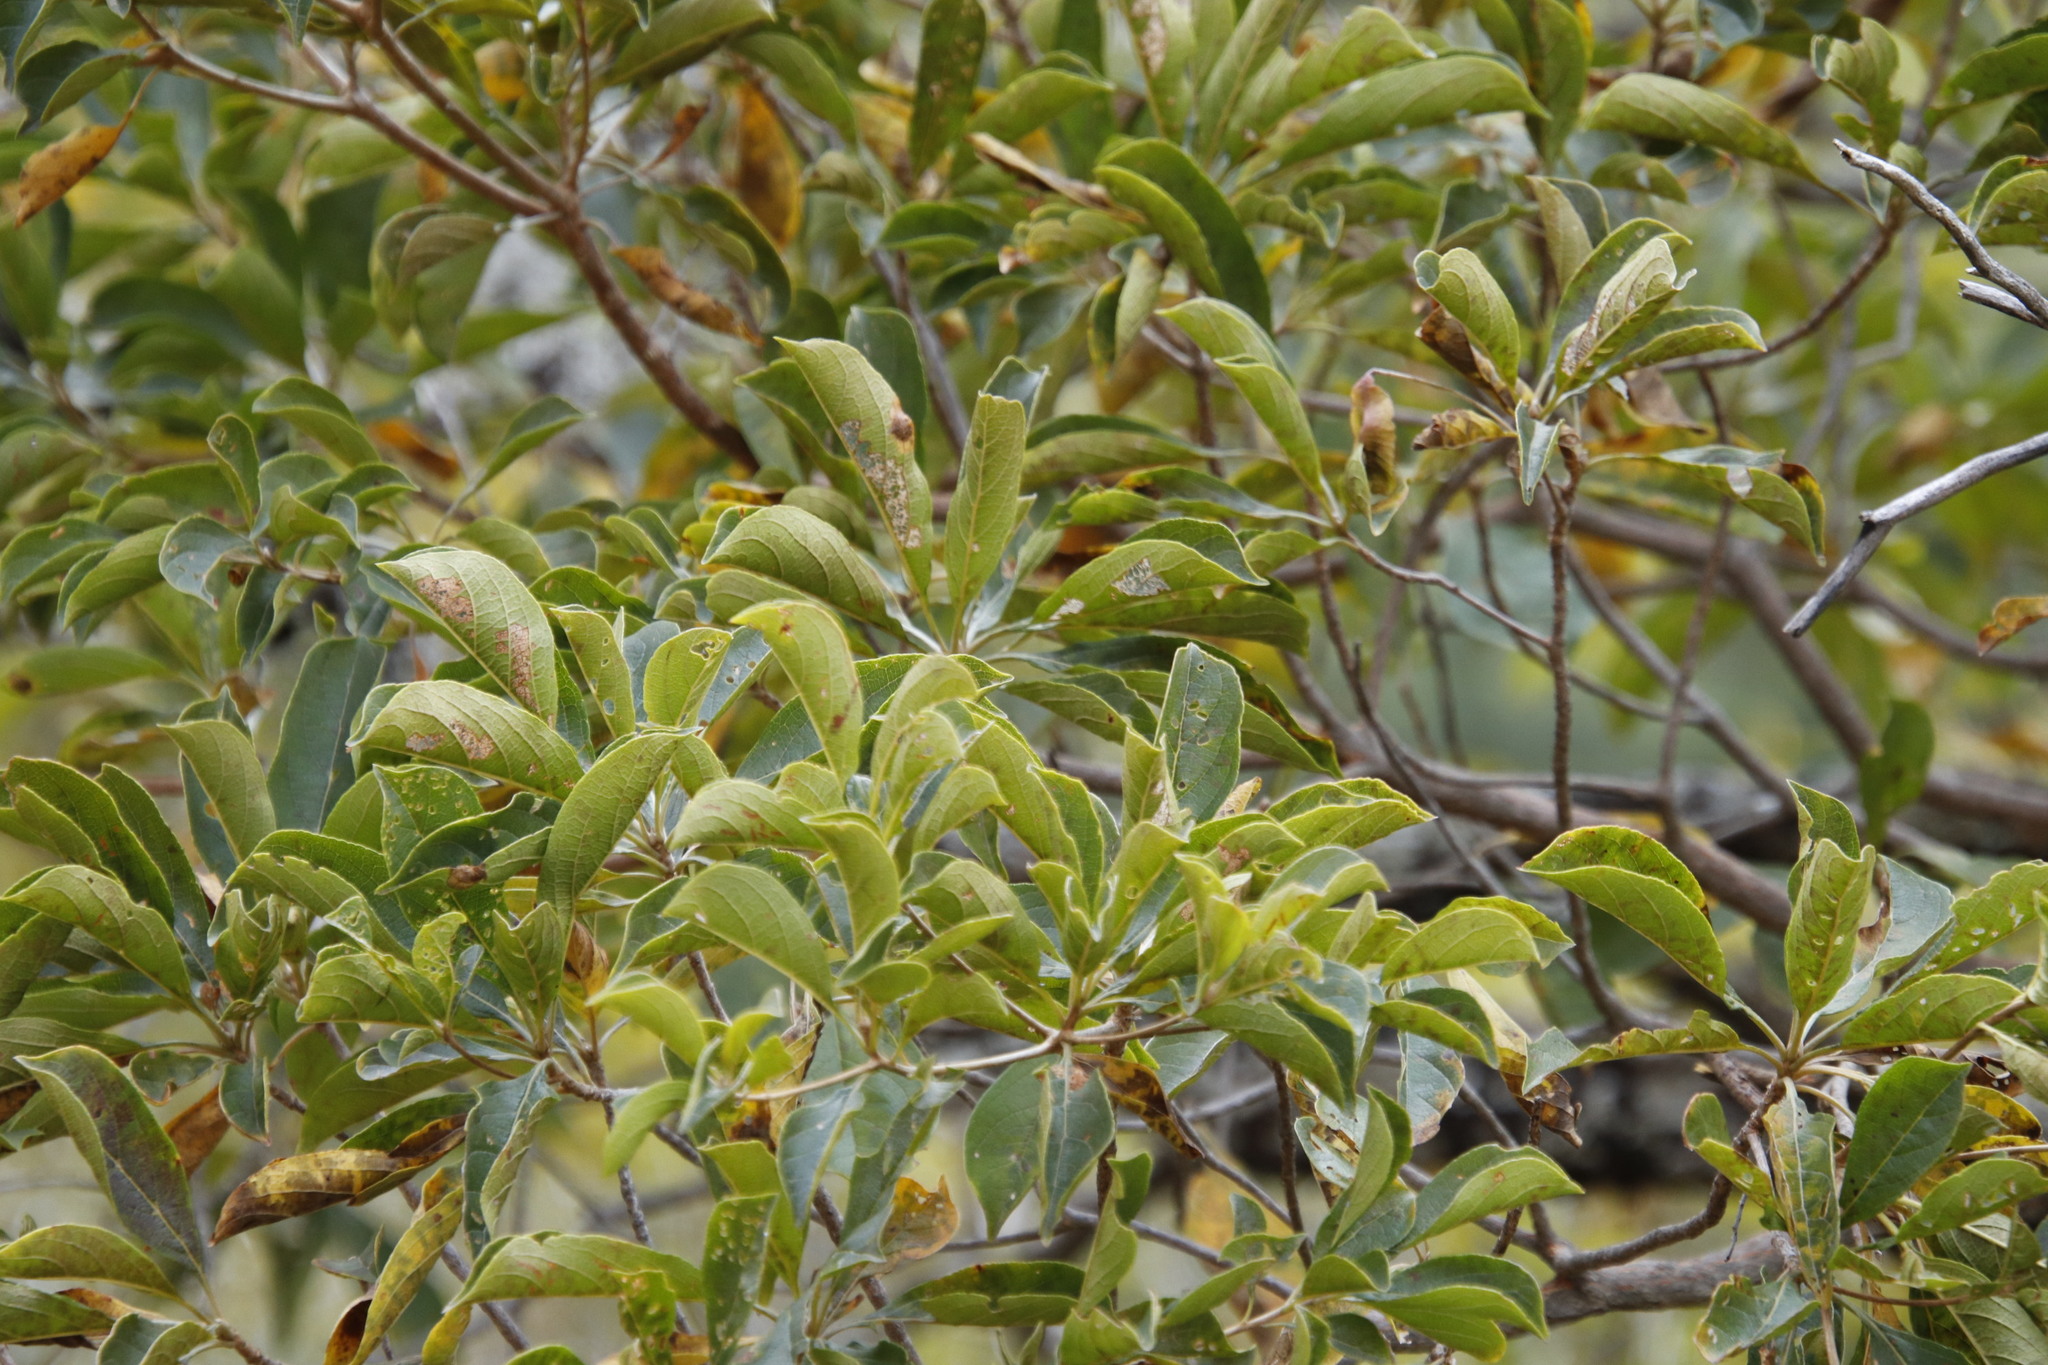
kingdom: Plantae
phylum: Tracheophyta
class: Magnoliopsida
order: Myrtales
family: Combretaceae
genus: Combretum
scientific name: Combretum molle
